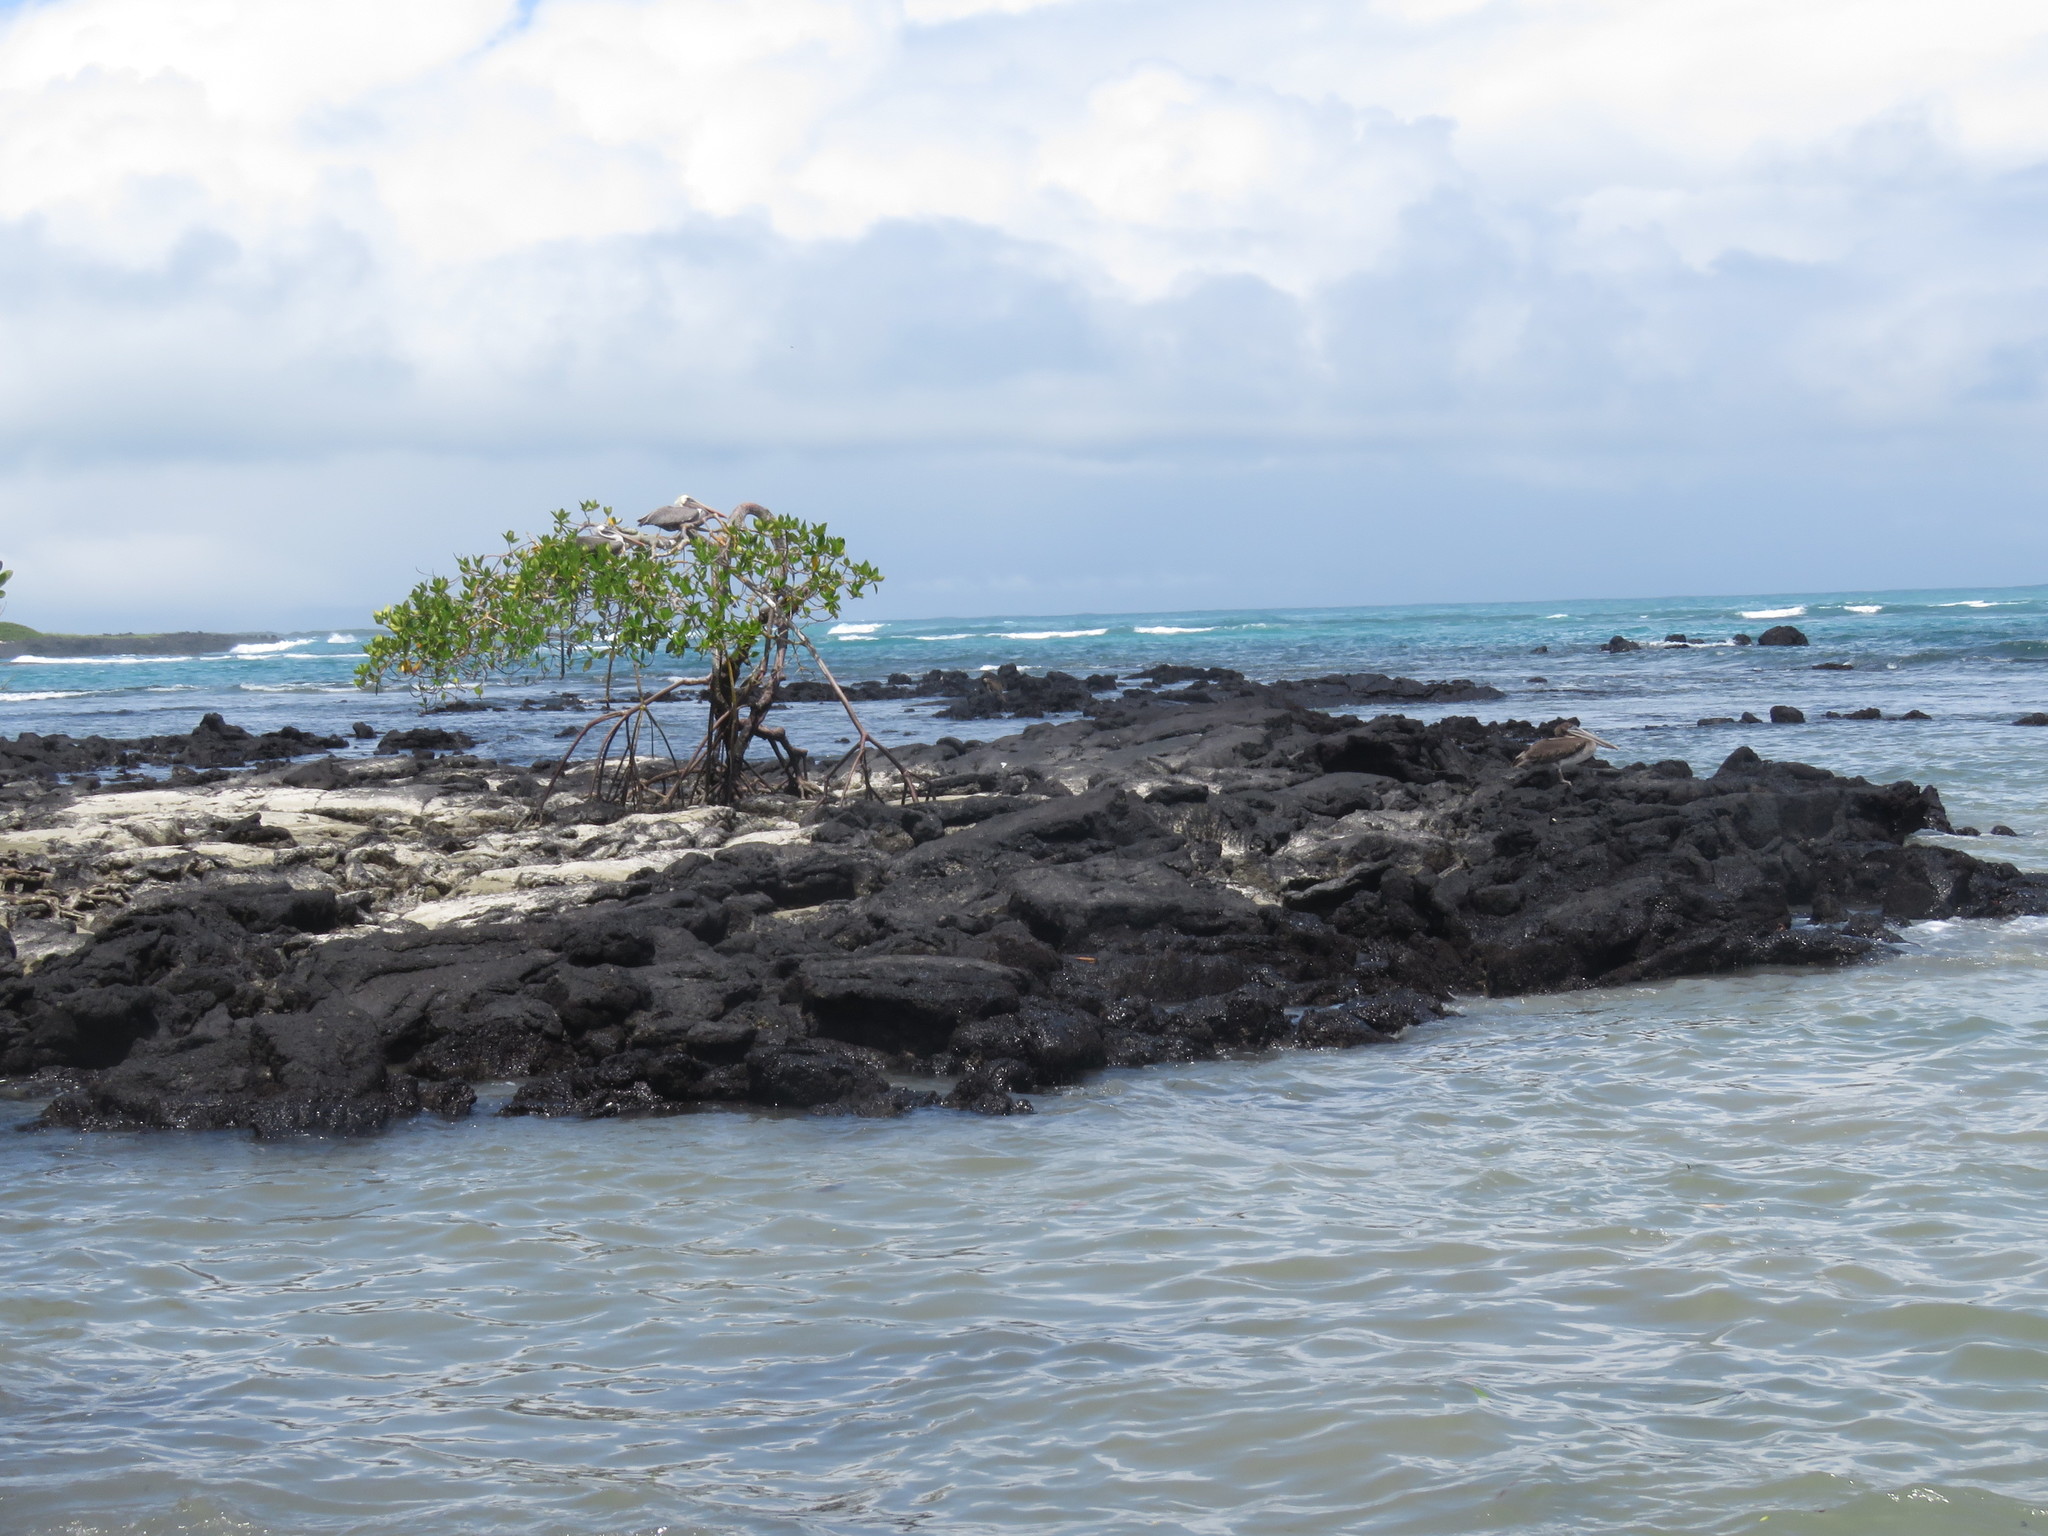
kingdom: Plantae
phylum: Tracheophyta
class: Magnoliopsida
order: Malpighiales
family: Rhizophoraceae
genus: Rhizophora
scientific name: Rhizophora mangle
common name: Red mangrove
